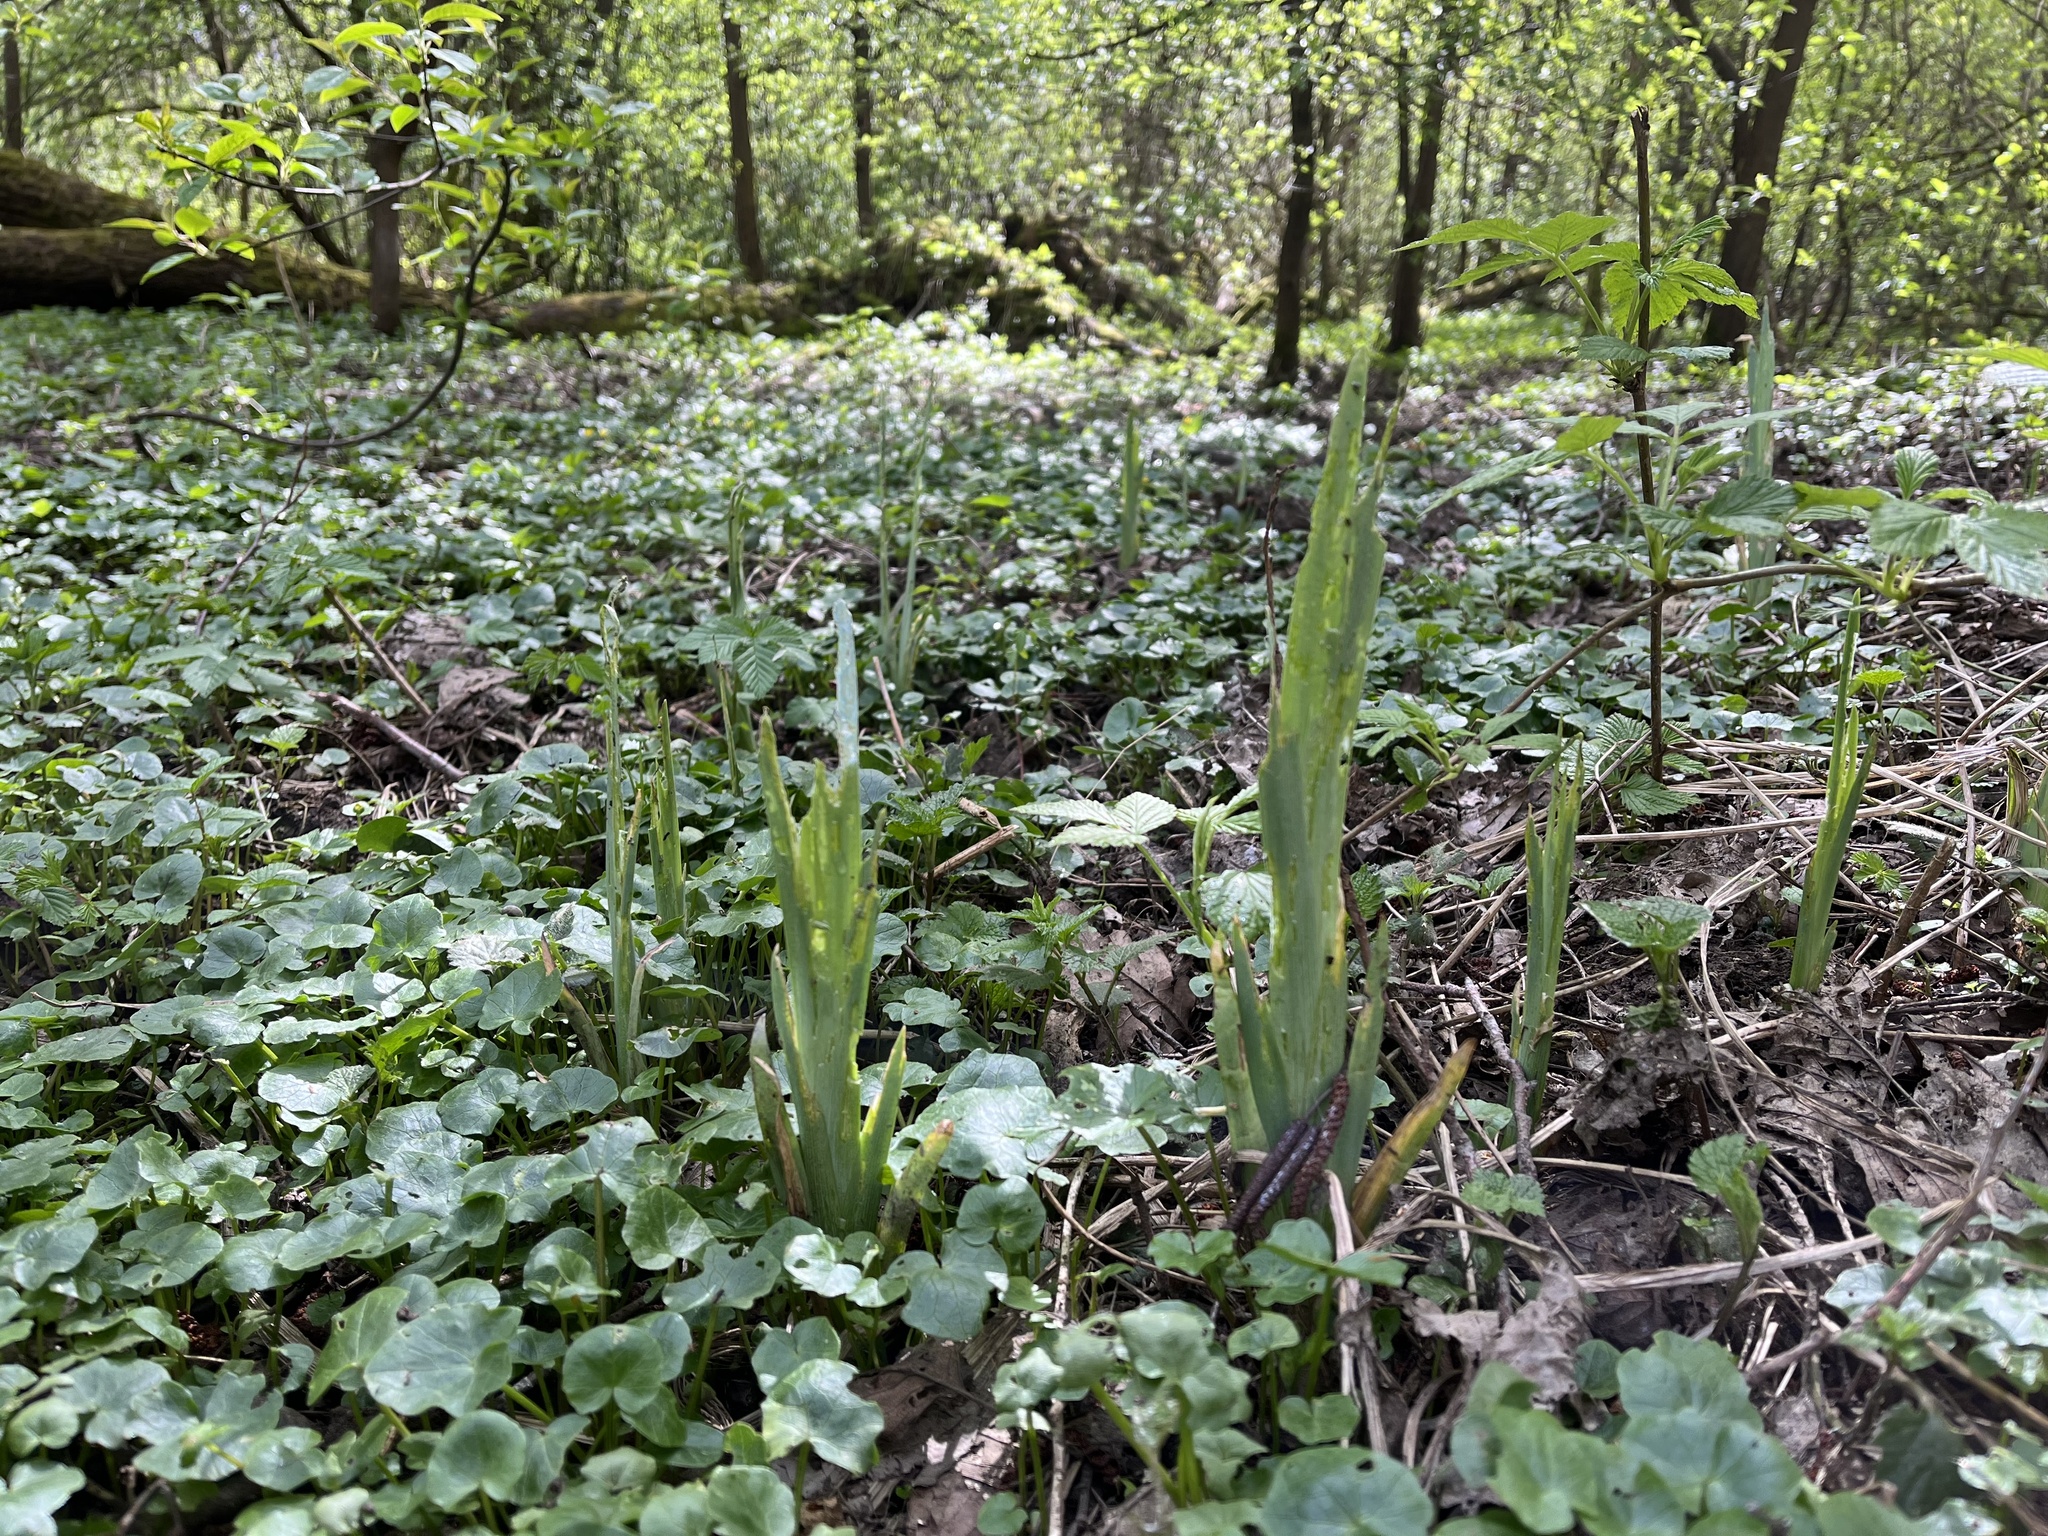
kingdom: Plantae
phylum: Tracheophyta
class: Liliopsida
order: Asparagales
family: Iridaceae
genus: Iris
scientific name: Iris pseudacorus
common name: Yellow flag
